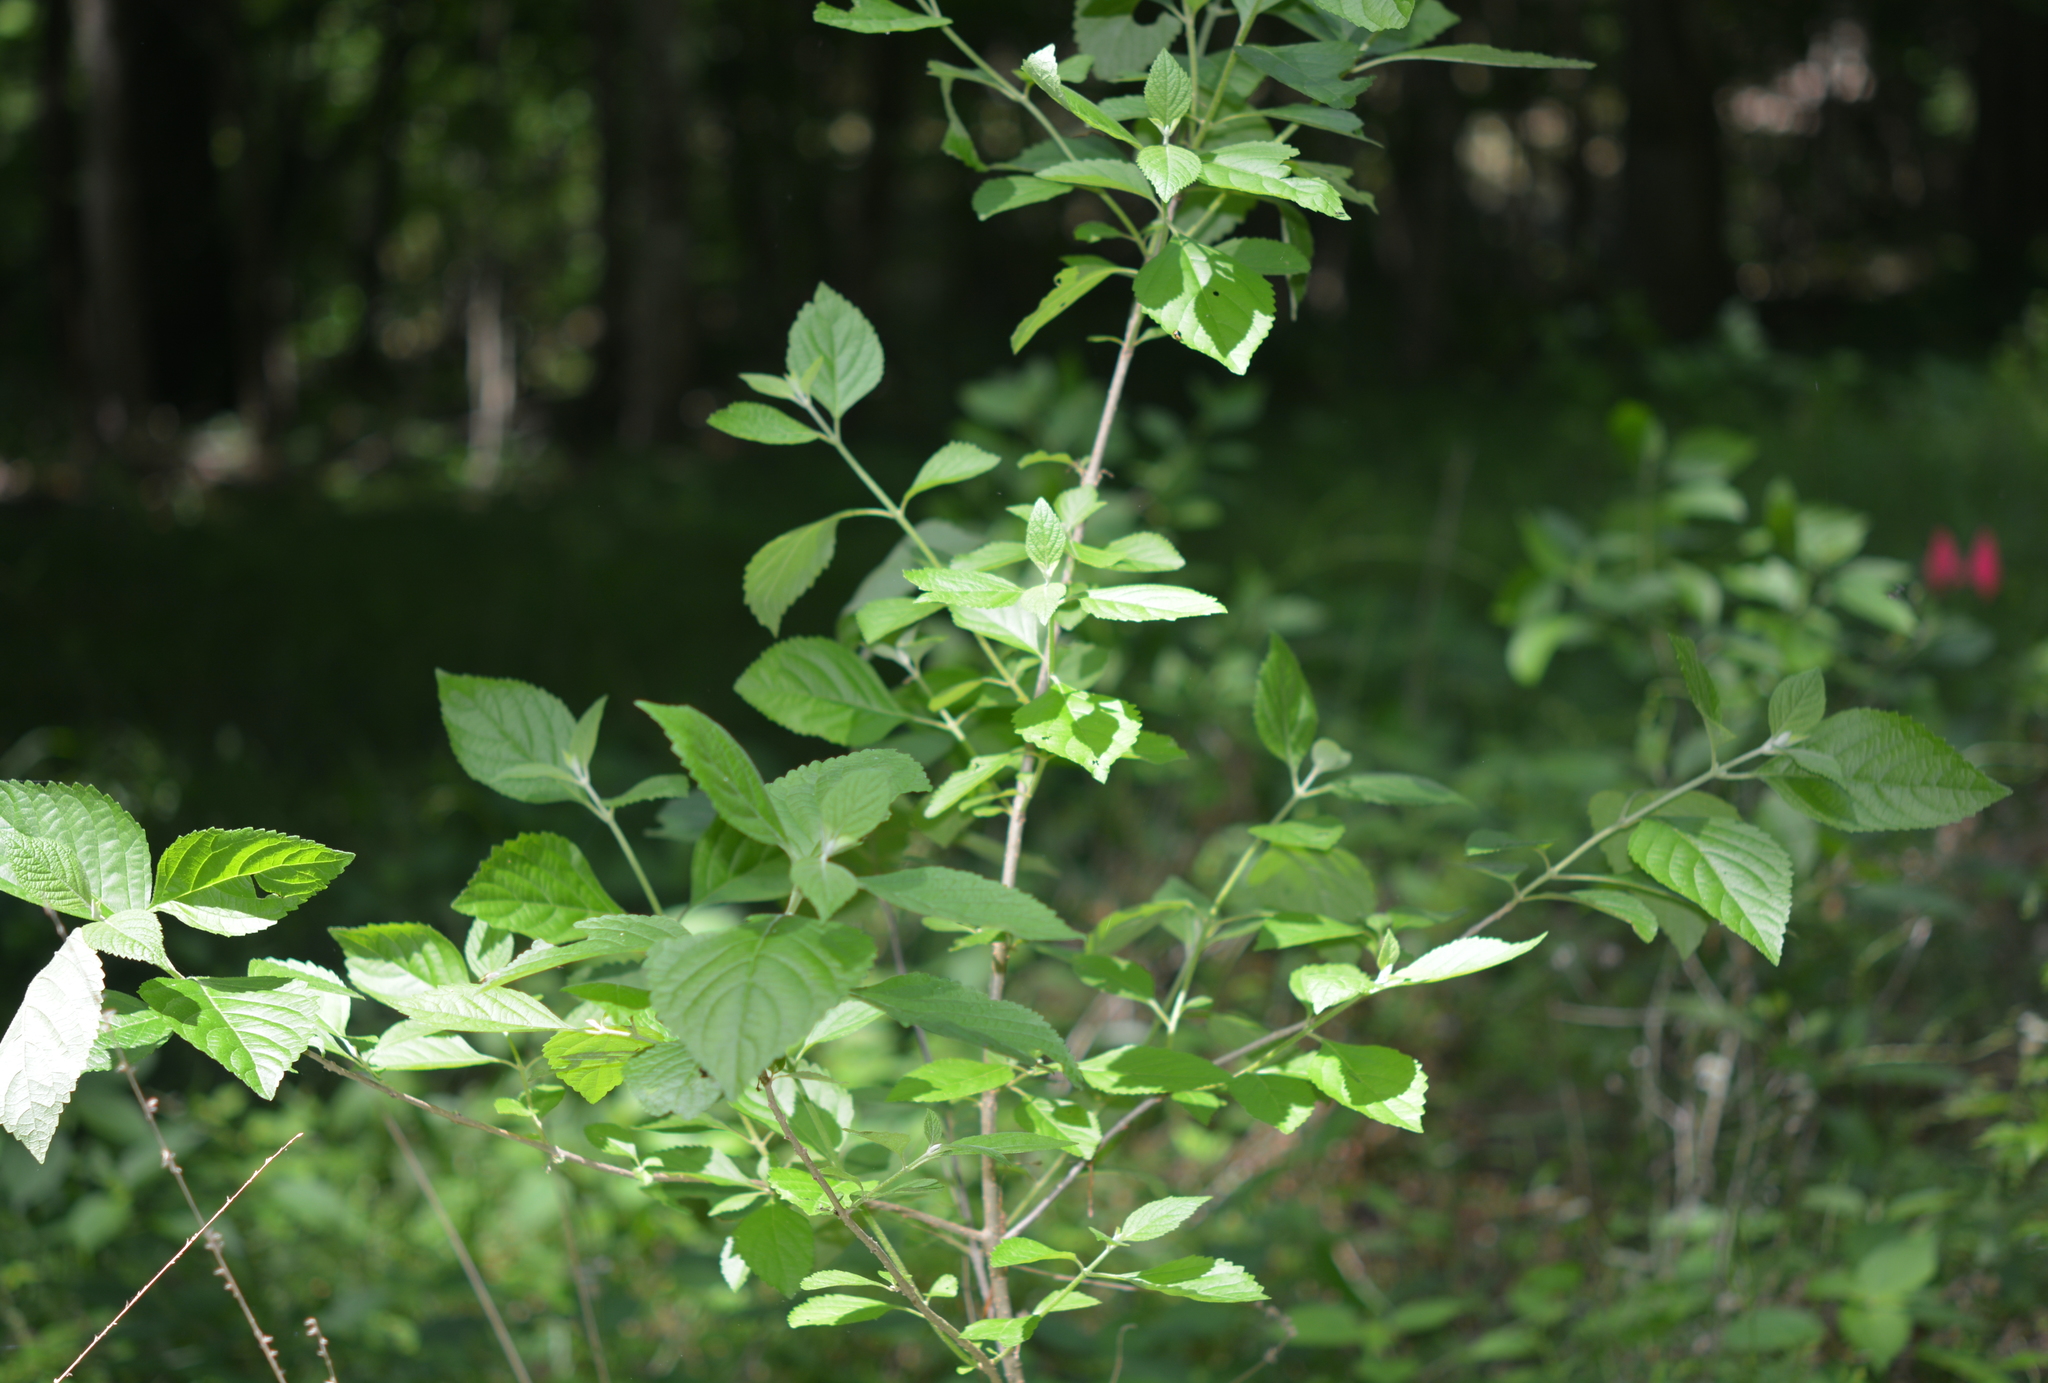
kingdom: Plantae
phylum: Tracheophyta
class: Magnoliopsida
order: Lamiales
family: Lamiaceae
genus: Callicarpa
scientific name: Callicarpa americana
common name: American beautyberry
